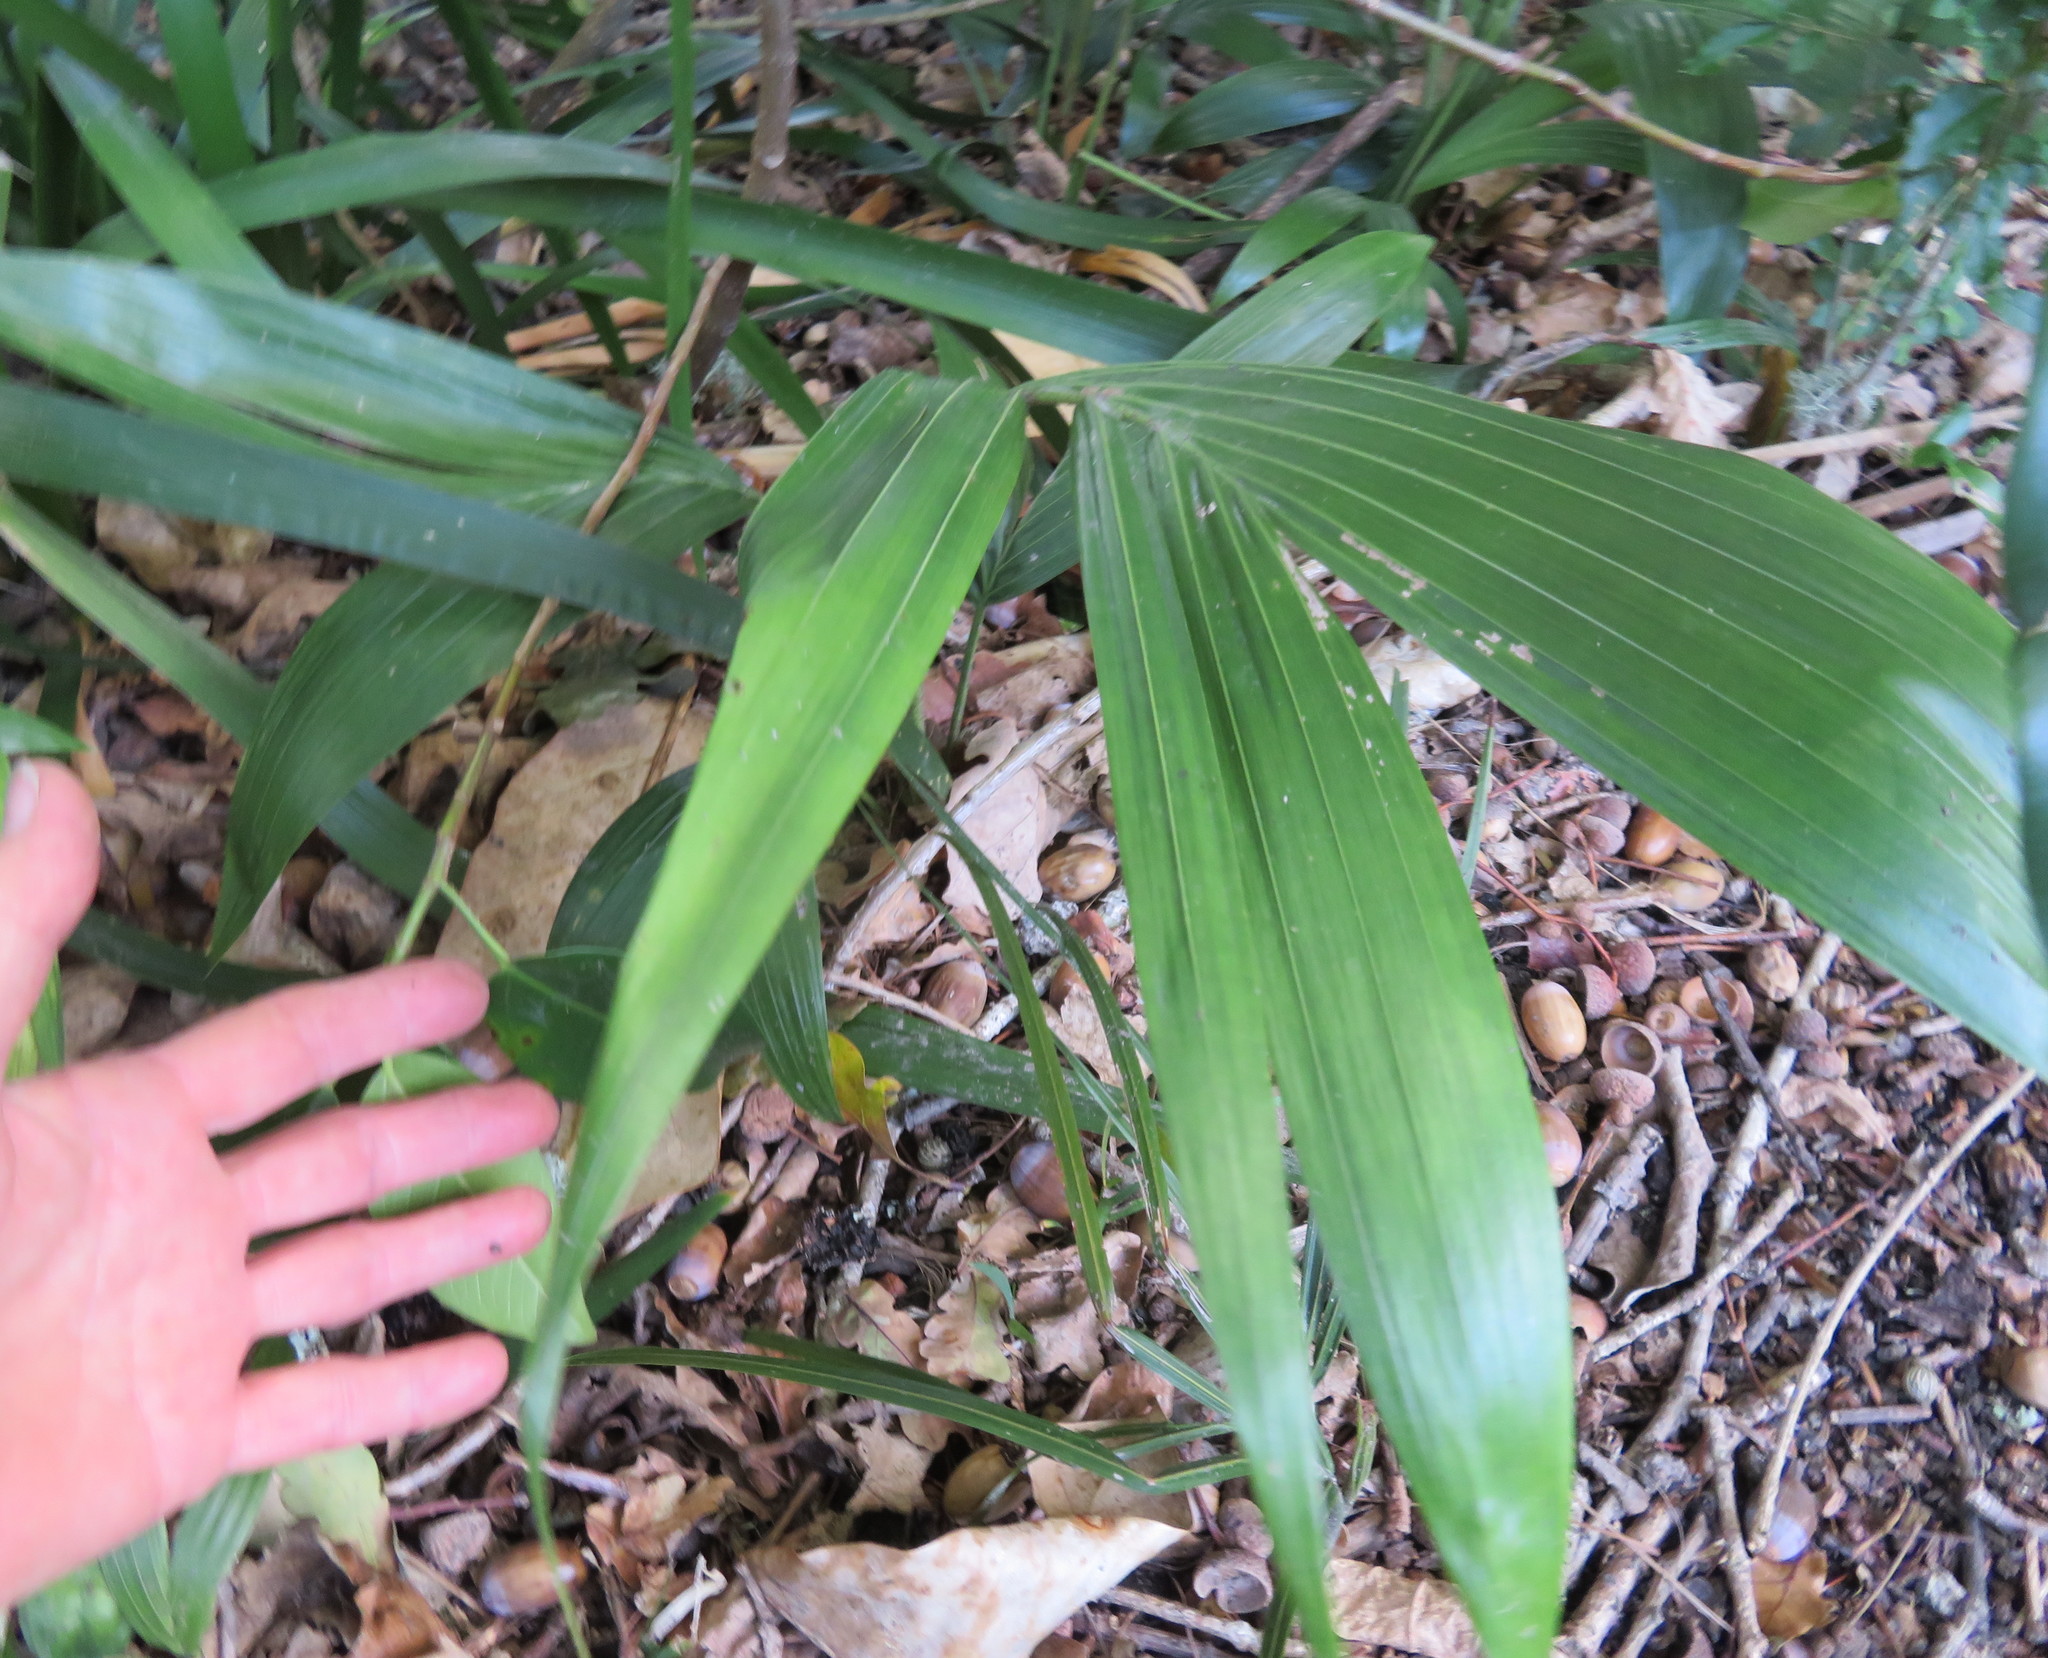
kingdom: Plantae
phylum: Tracheophyta
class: Liliopsida
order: Arecales
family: Arecaceae
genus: Archontophoenix
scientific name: Archontophoenix cunninghamiana
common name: Piccabeen bangalow palm
